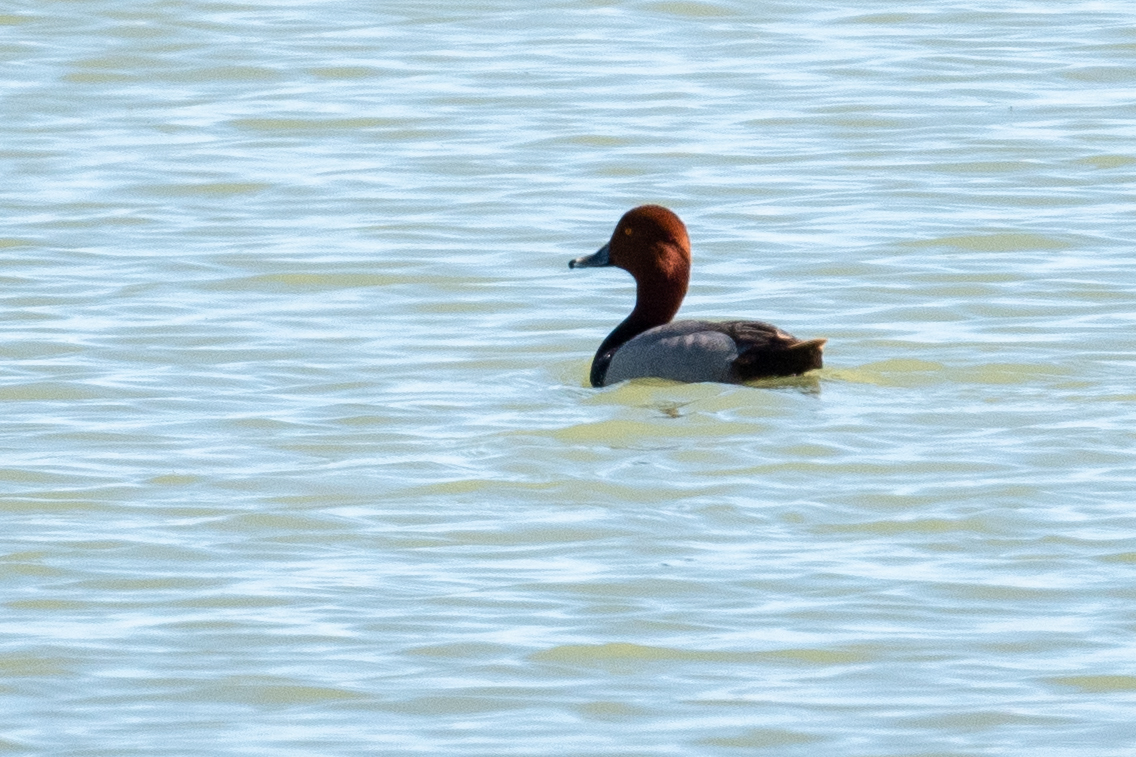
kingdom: Animalia
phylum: Chordata
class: Aves
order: Anseriformes
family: Anatidae
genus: Aythya
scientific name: Aythya americana
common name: Redhead
